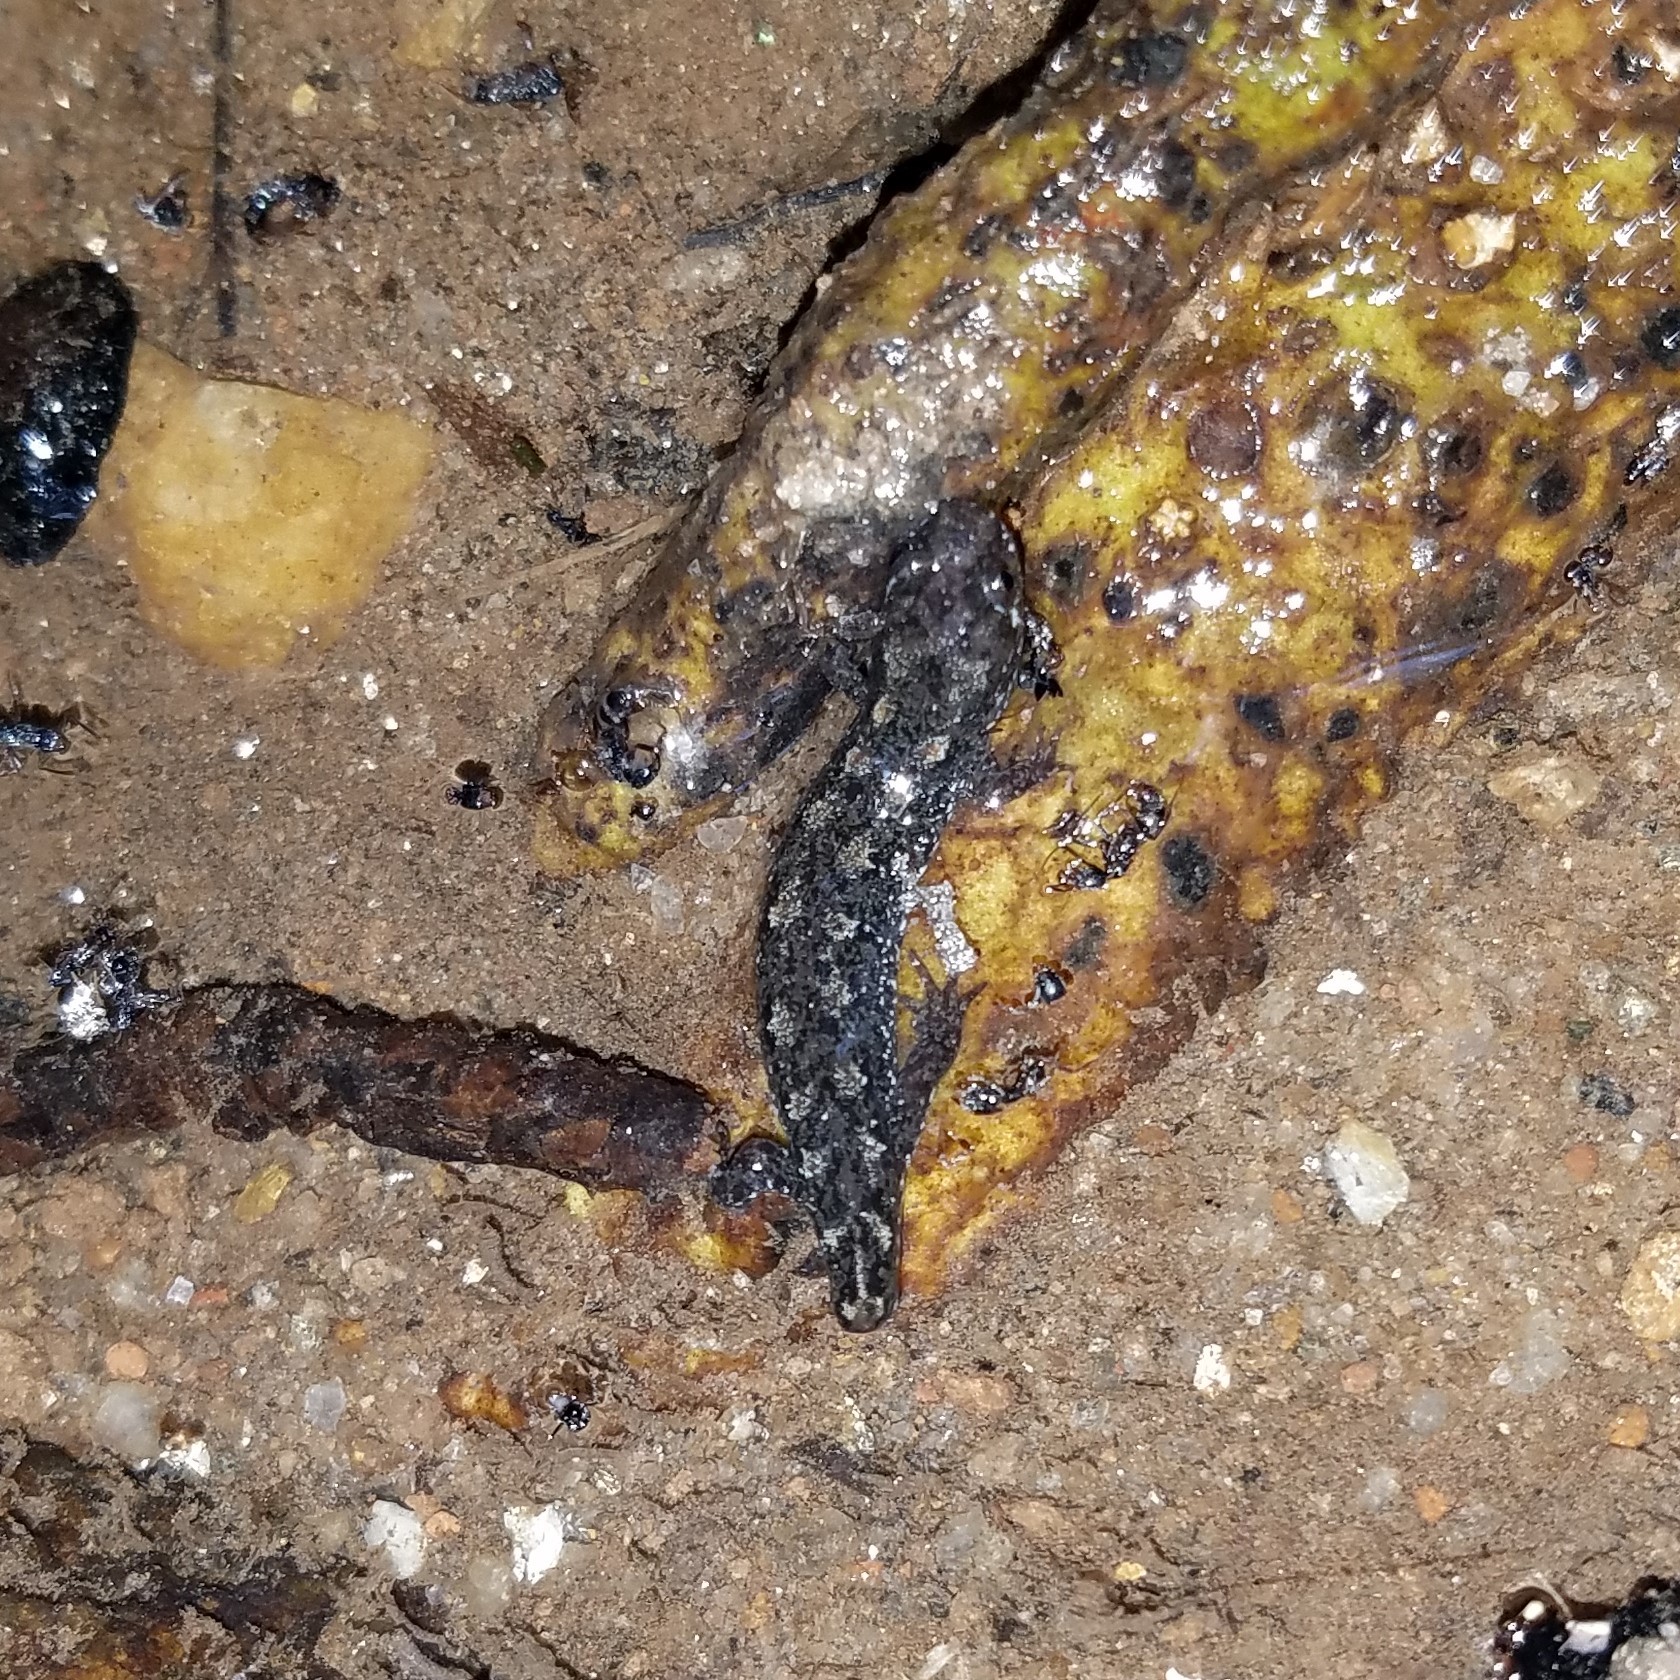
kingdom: Animalia
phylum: Chordata
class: Amphibia
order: Caudata
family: Plethodontidae
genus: Desmognathus
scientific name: Desmognathus
